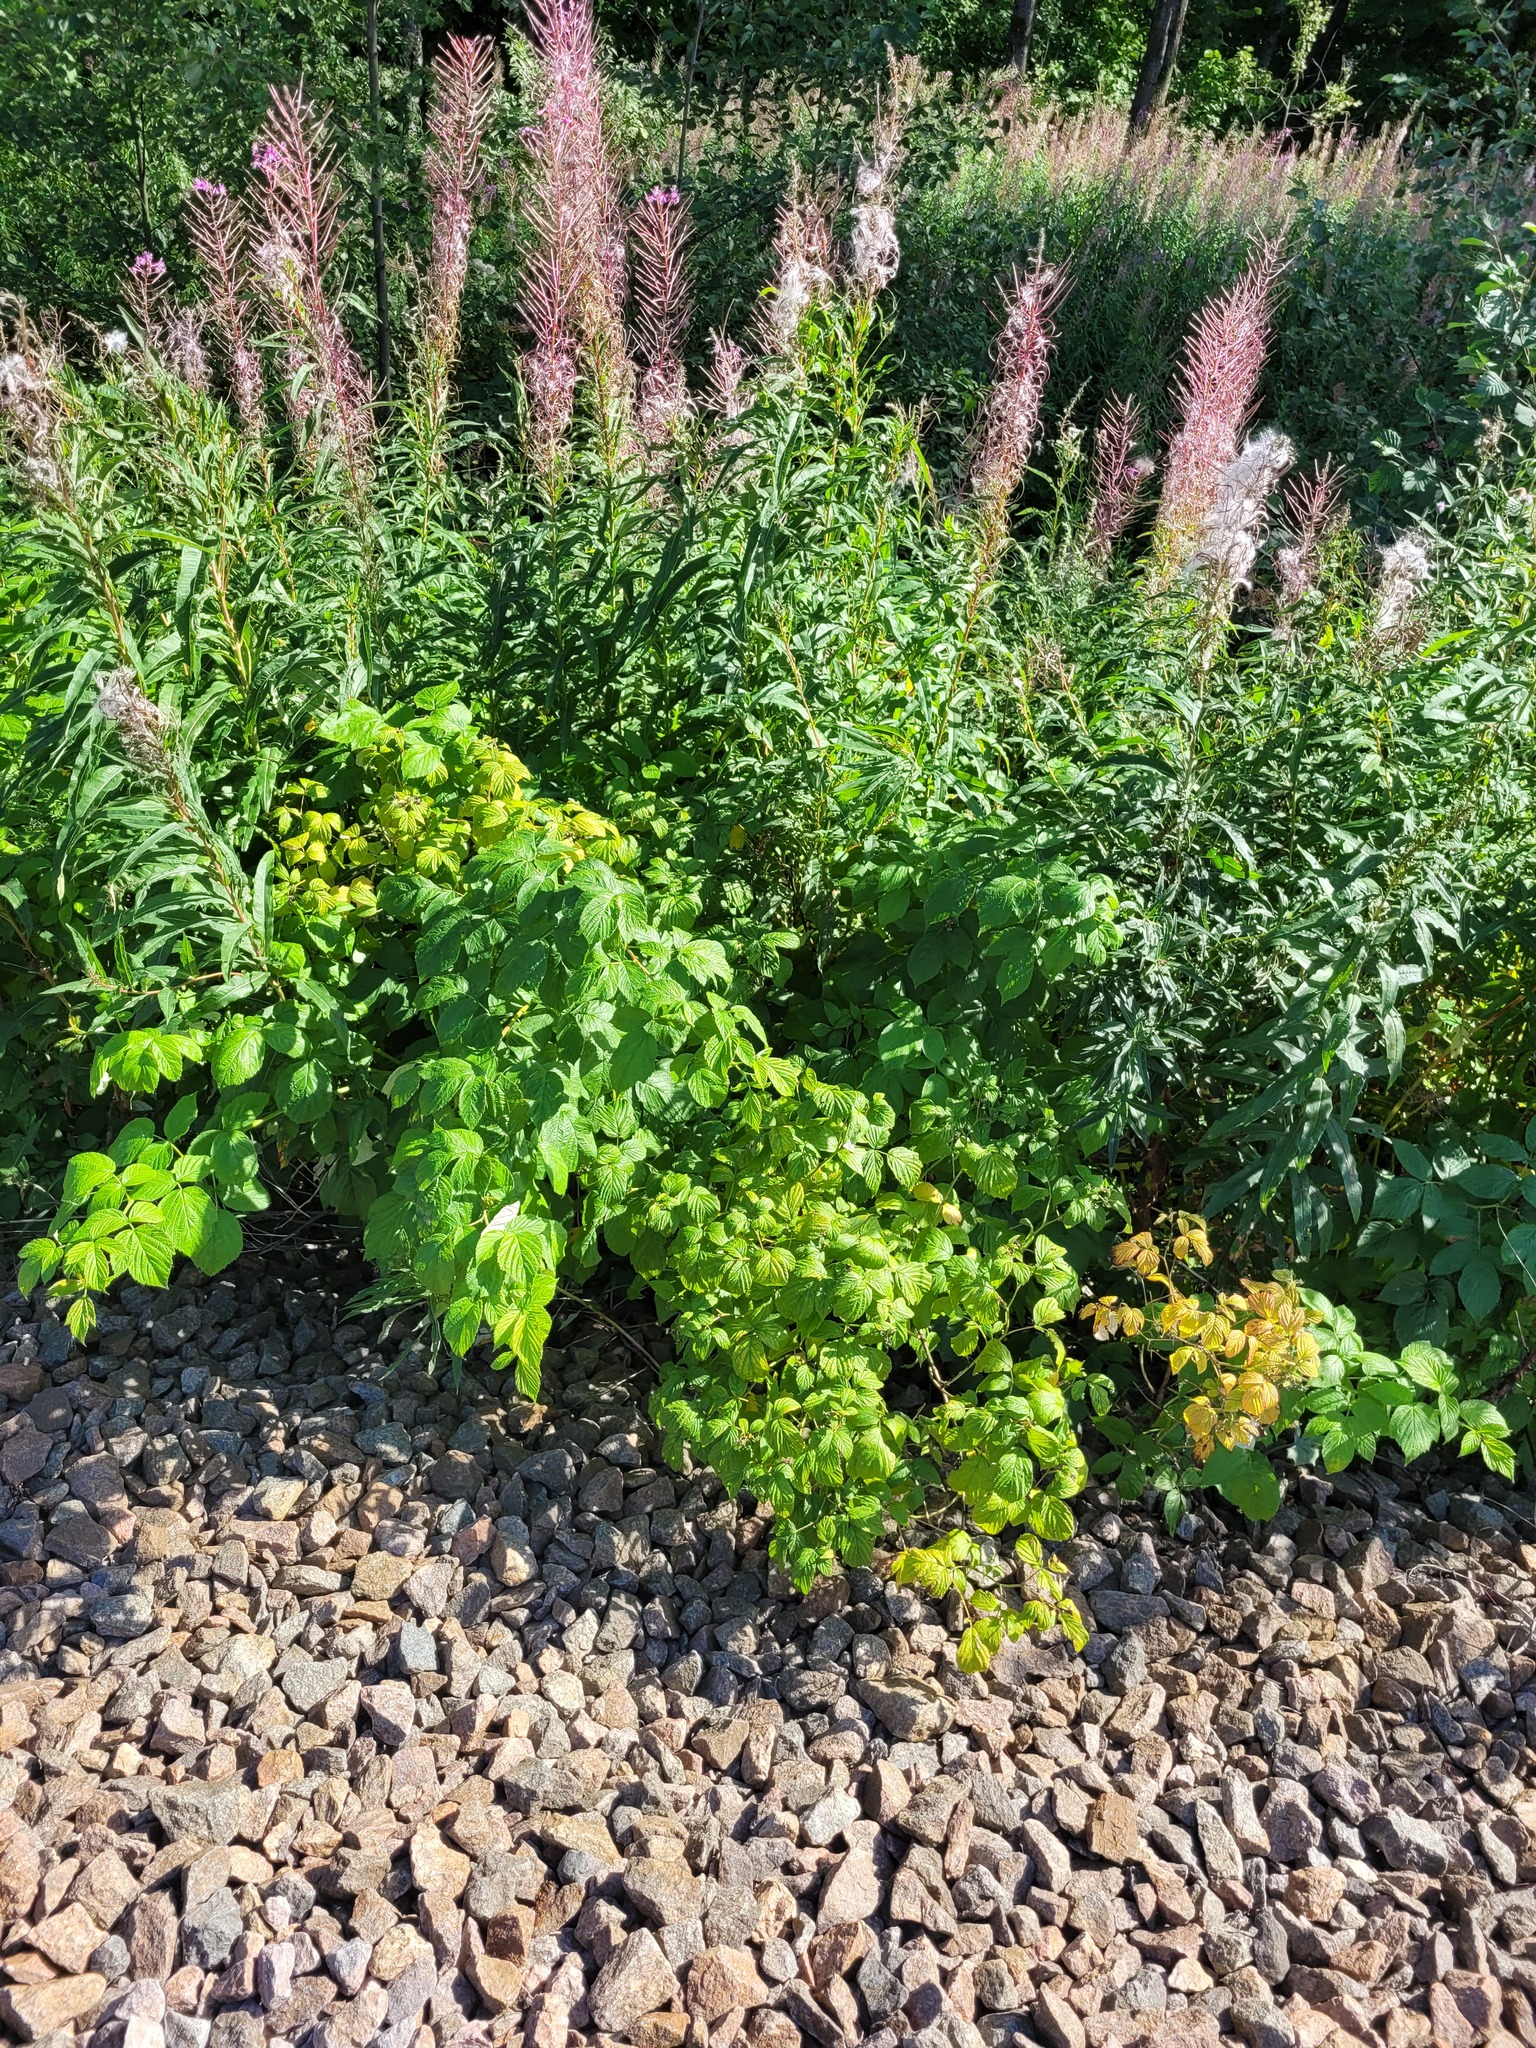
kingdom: Plantae
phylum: Tracheophyta
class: Magnoliopsida
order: Rosales
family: Rosaceae
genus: Rubus
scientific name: Rubus idaeus
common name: Raspberry
